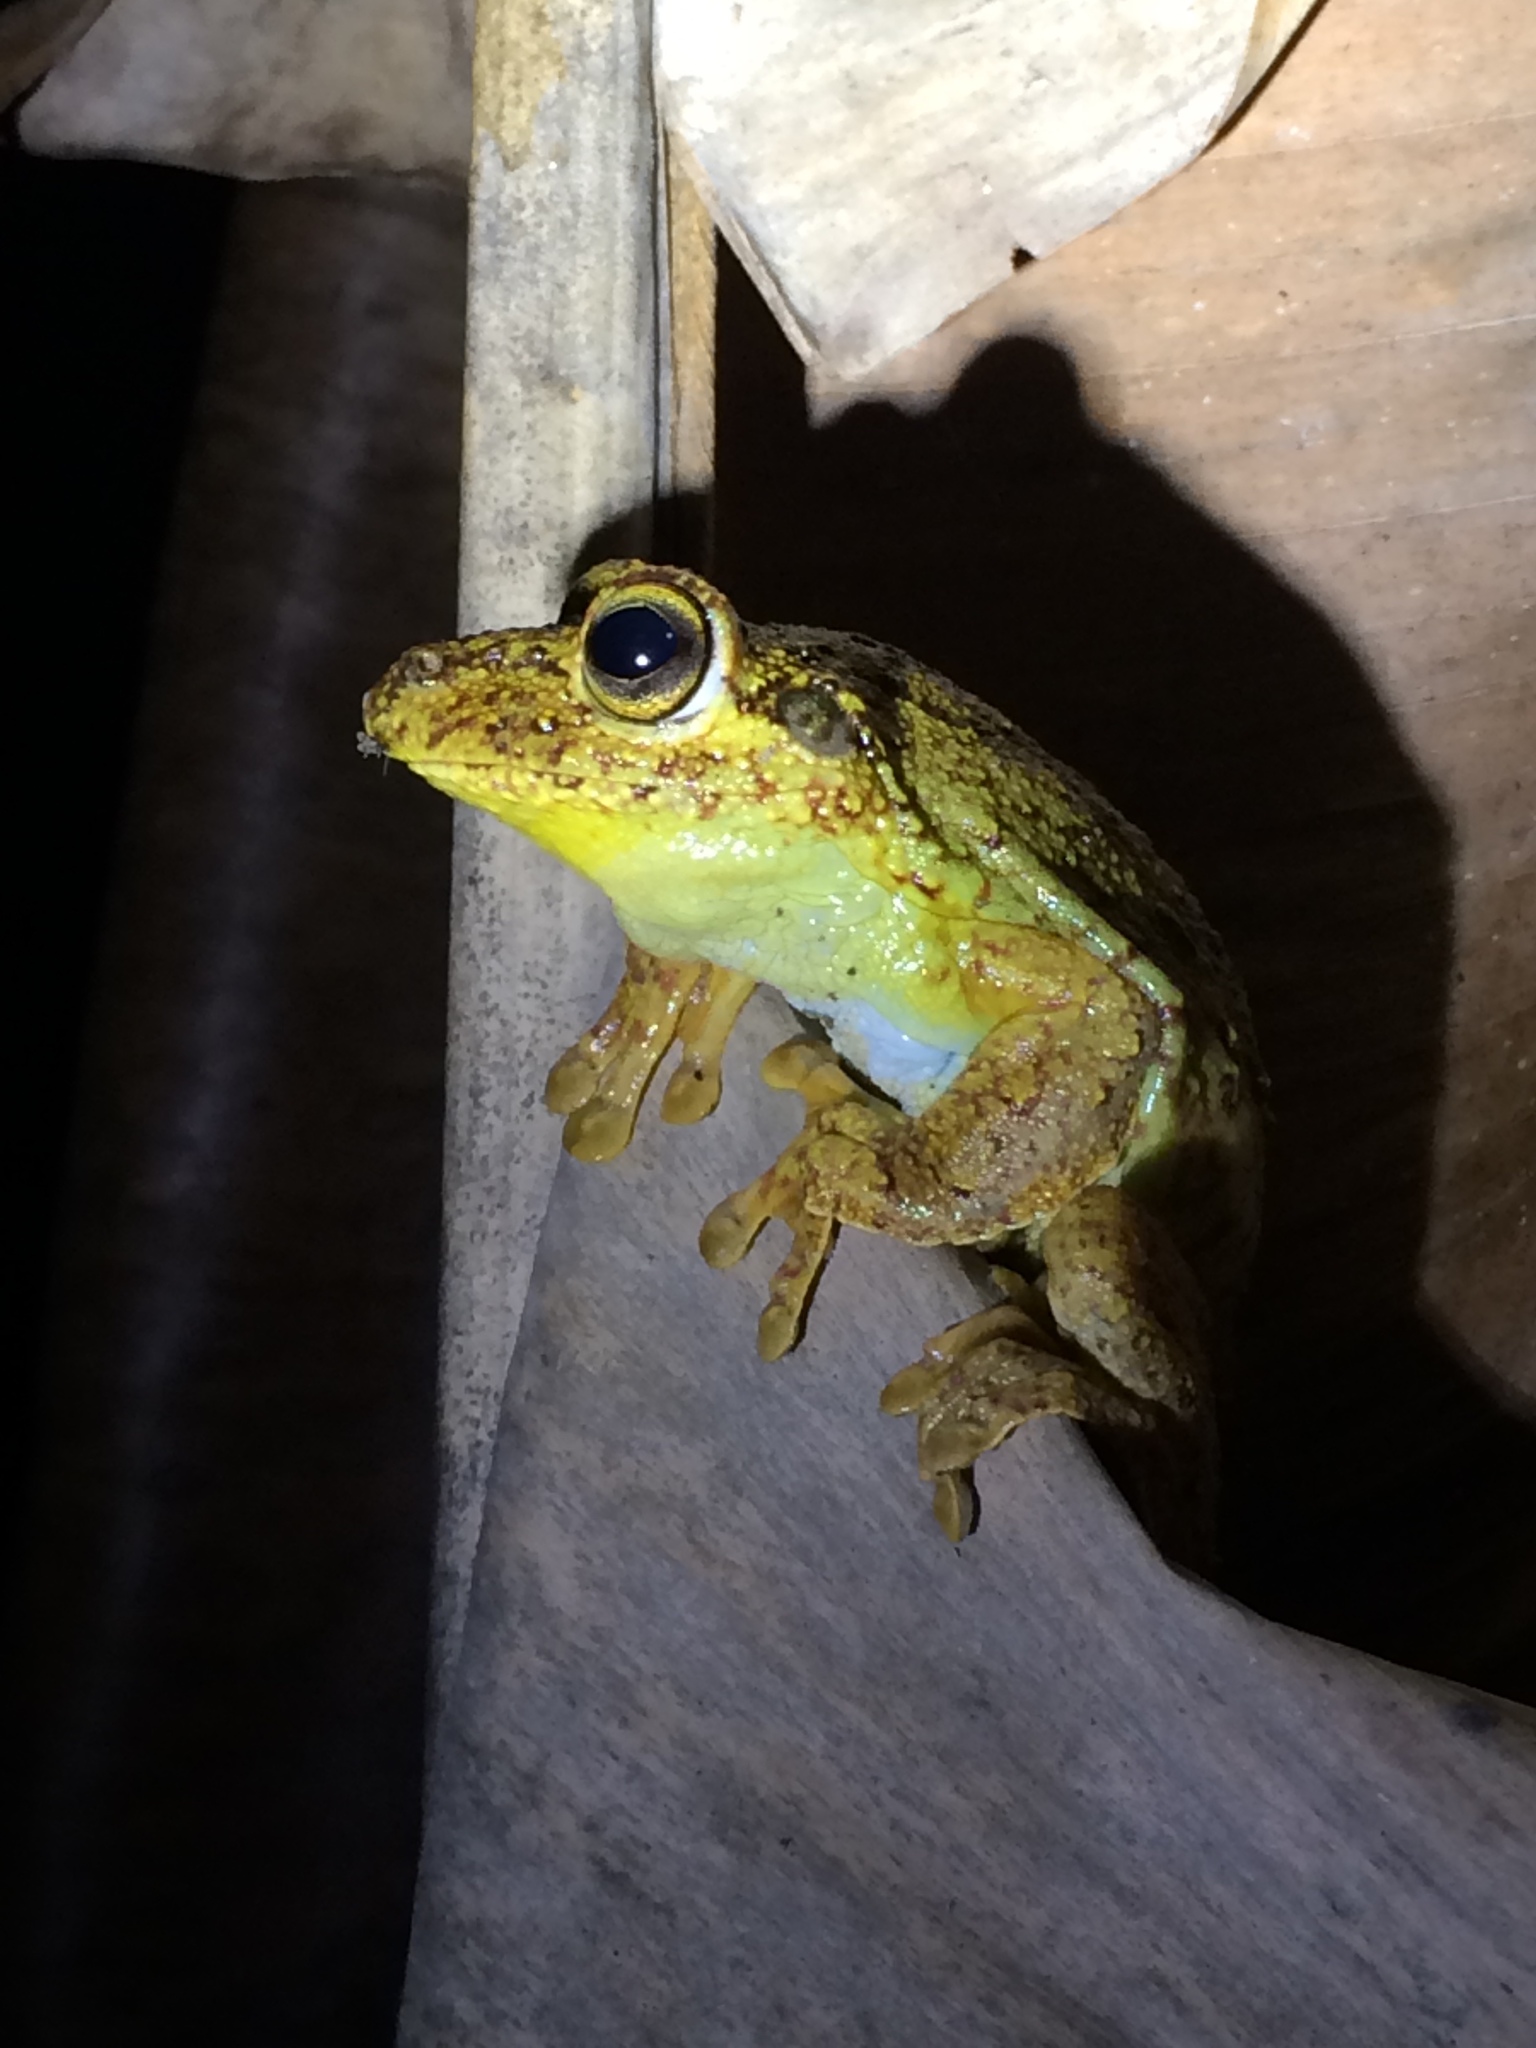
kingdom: Animalia
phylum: Chordata
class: Amphibia
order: Anura
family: Hylidae
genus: Boana
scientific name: Boana exastis
